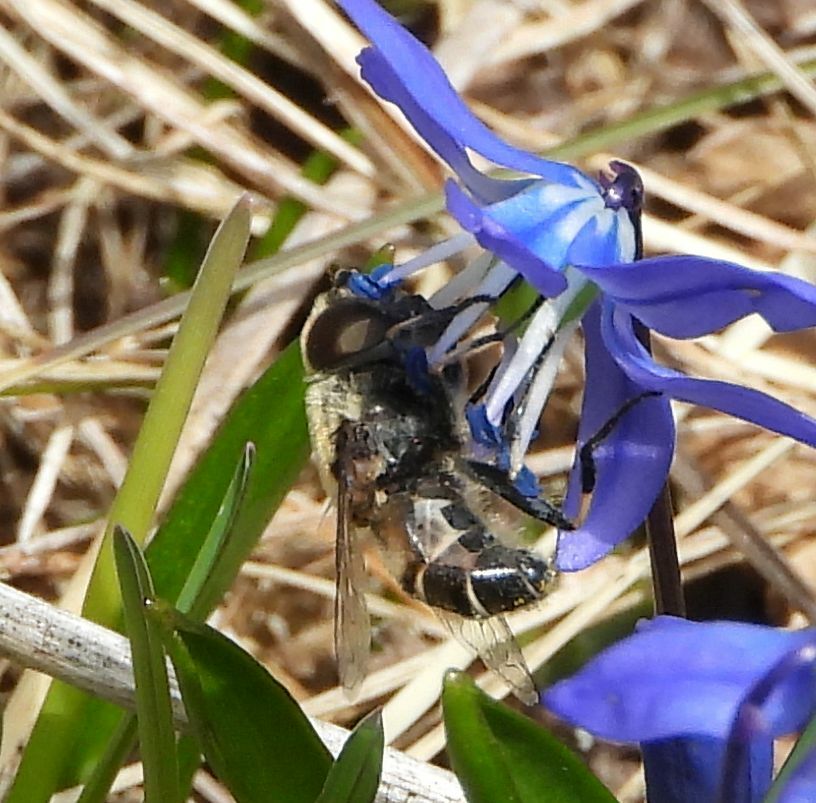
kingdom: Animalia
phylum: Arthropoda
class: Insecta
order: Diptera
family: Syrphidae
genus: Eristalis
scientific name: Eristalis dimidiata
